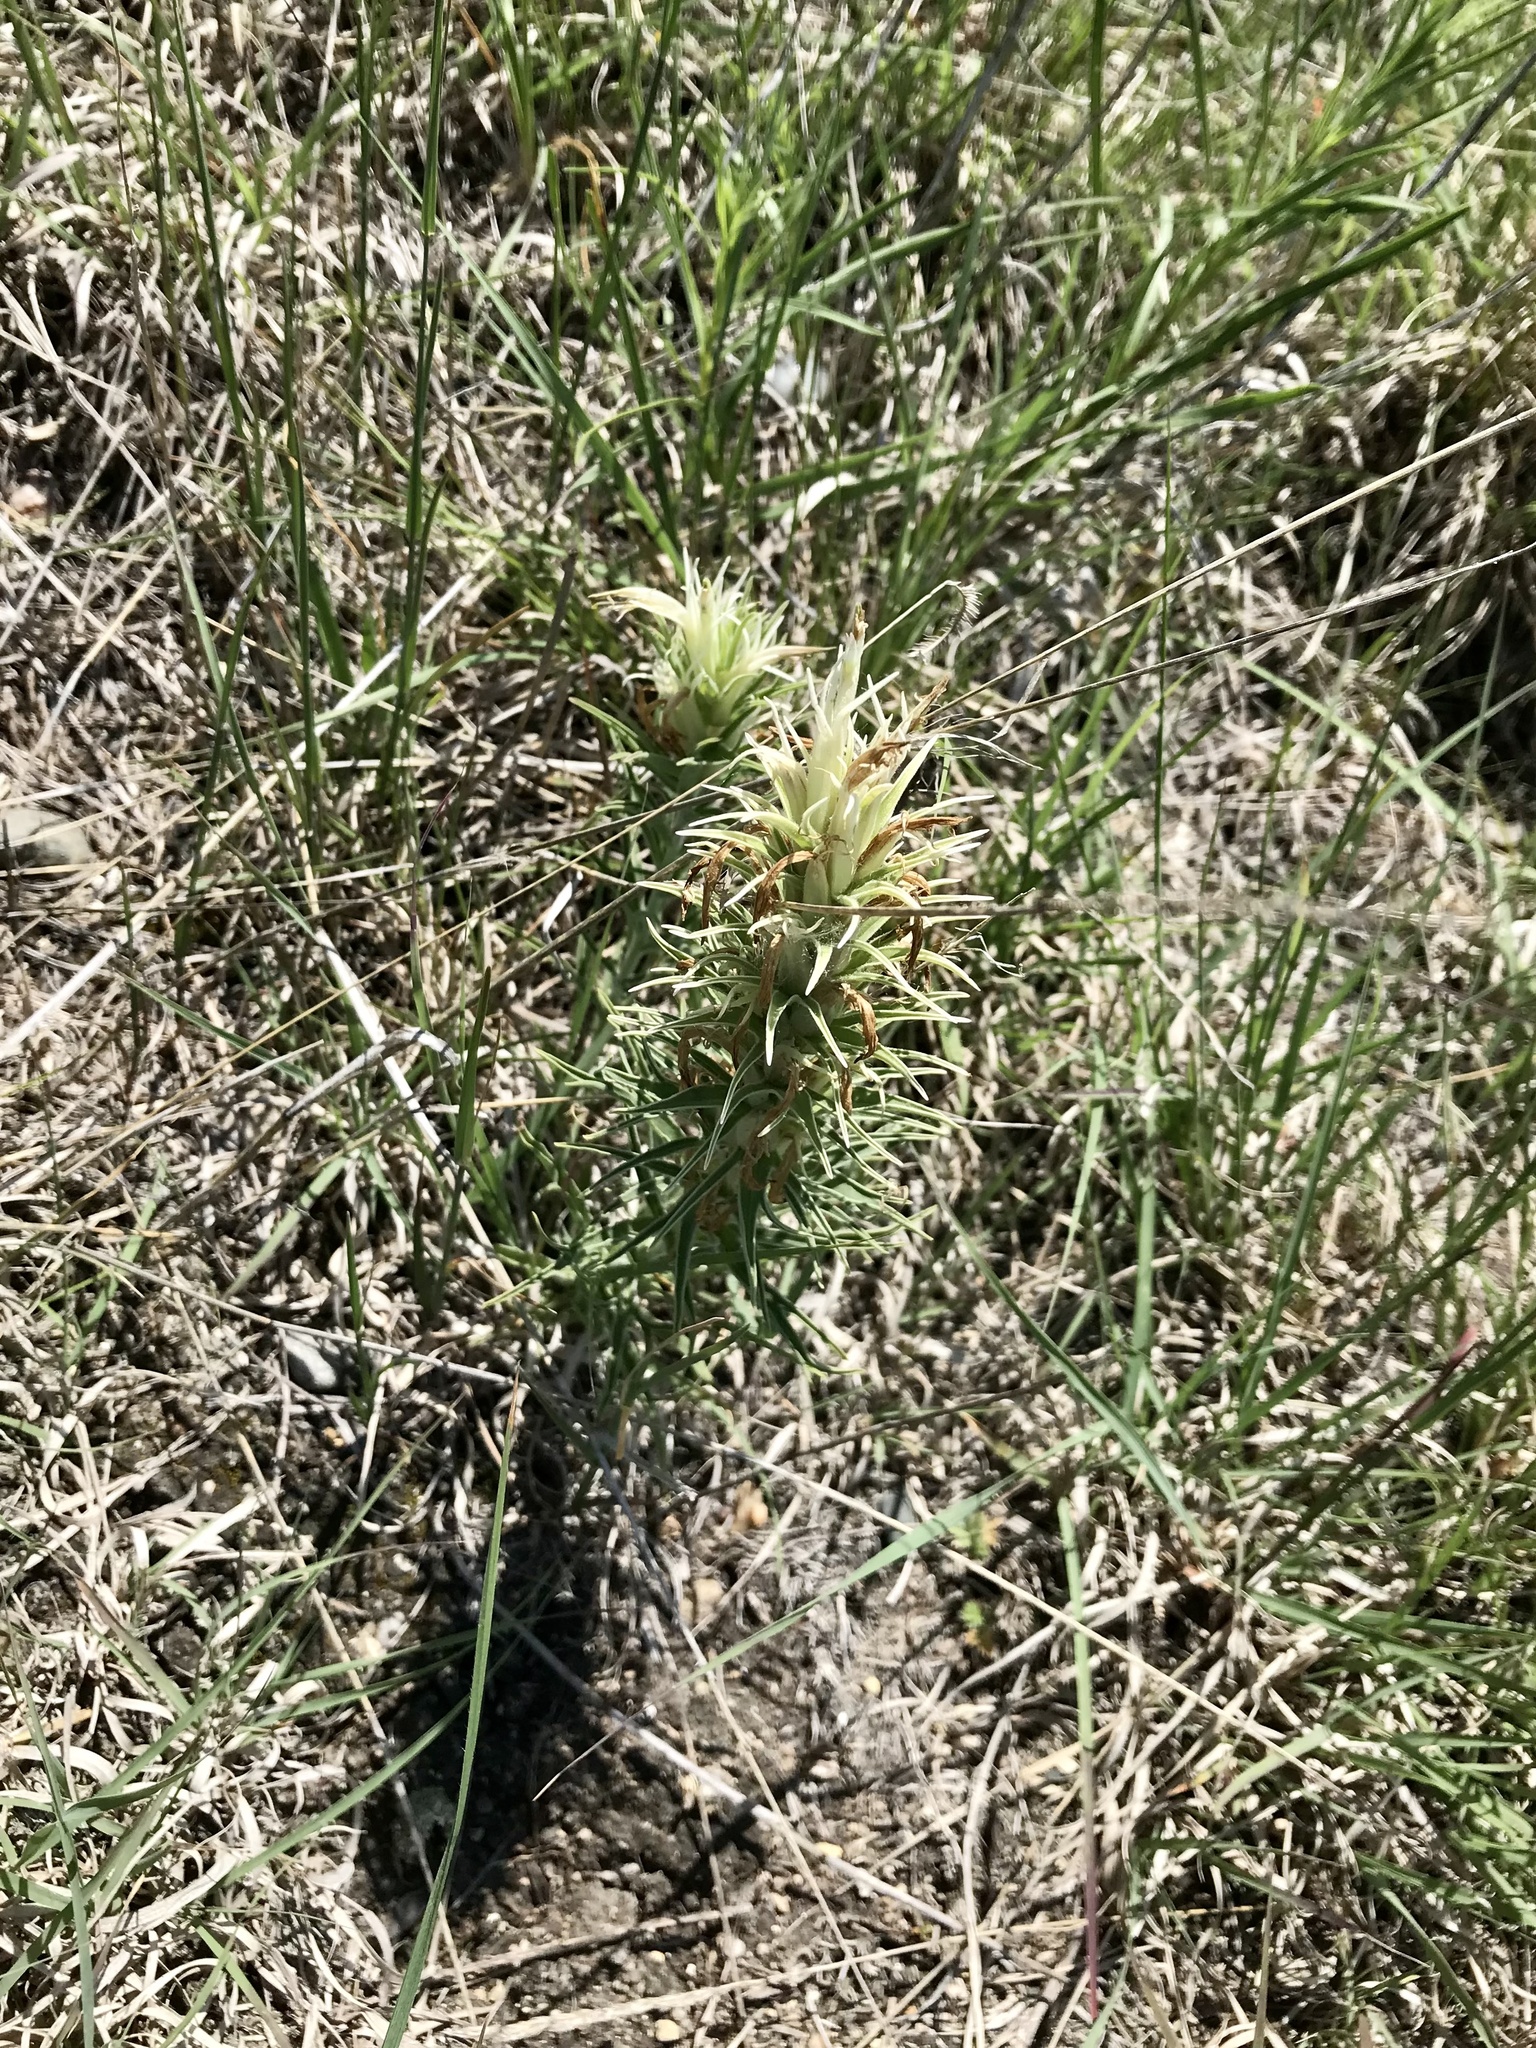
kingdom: Plantae
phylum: Tracheophyta
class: Magnoliopsida
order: Lamiales
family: Orobanchaceae
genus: Castilleja
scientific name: Castilleja sessiliflora
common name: Downy paintbrush
